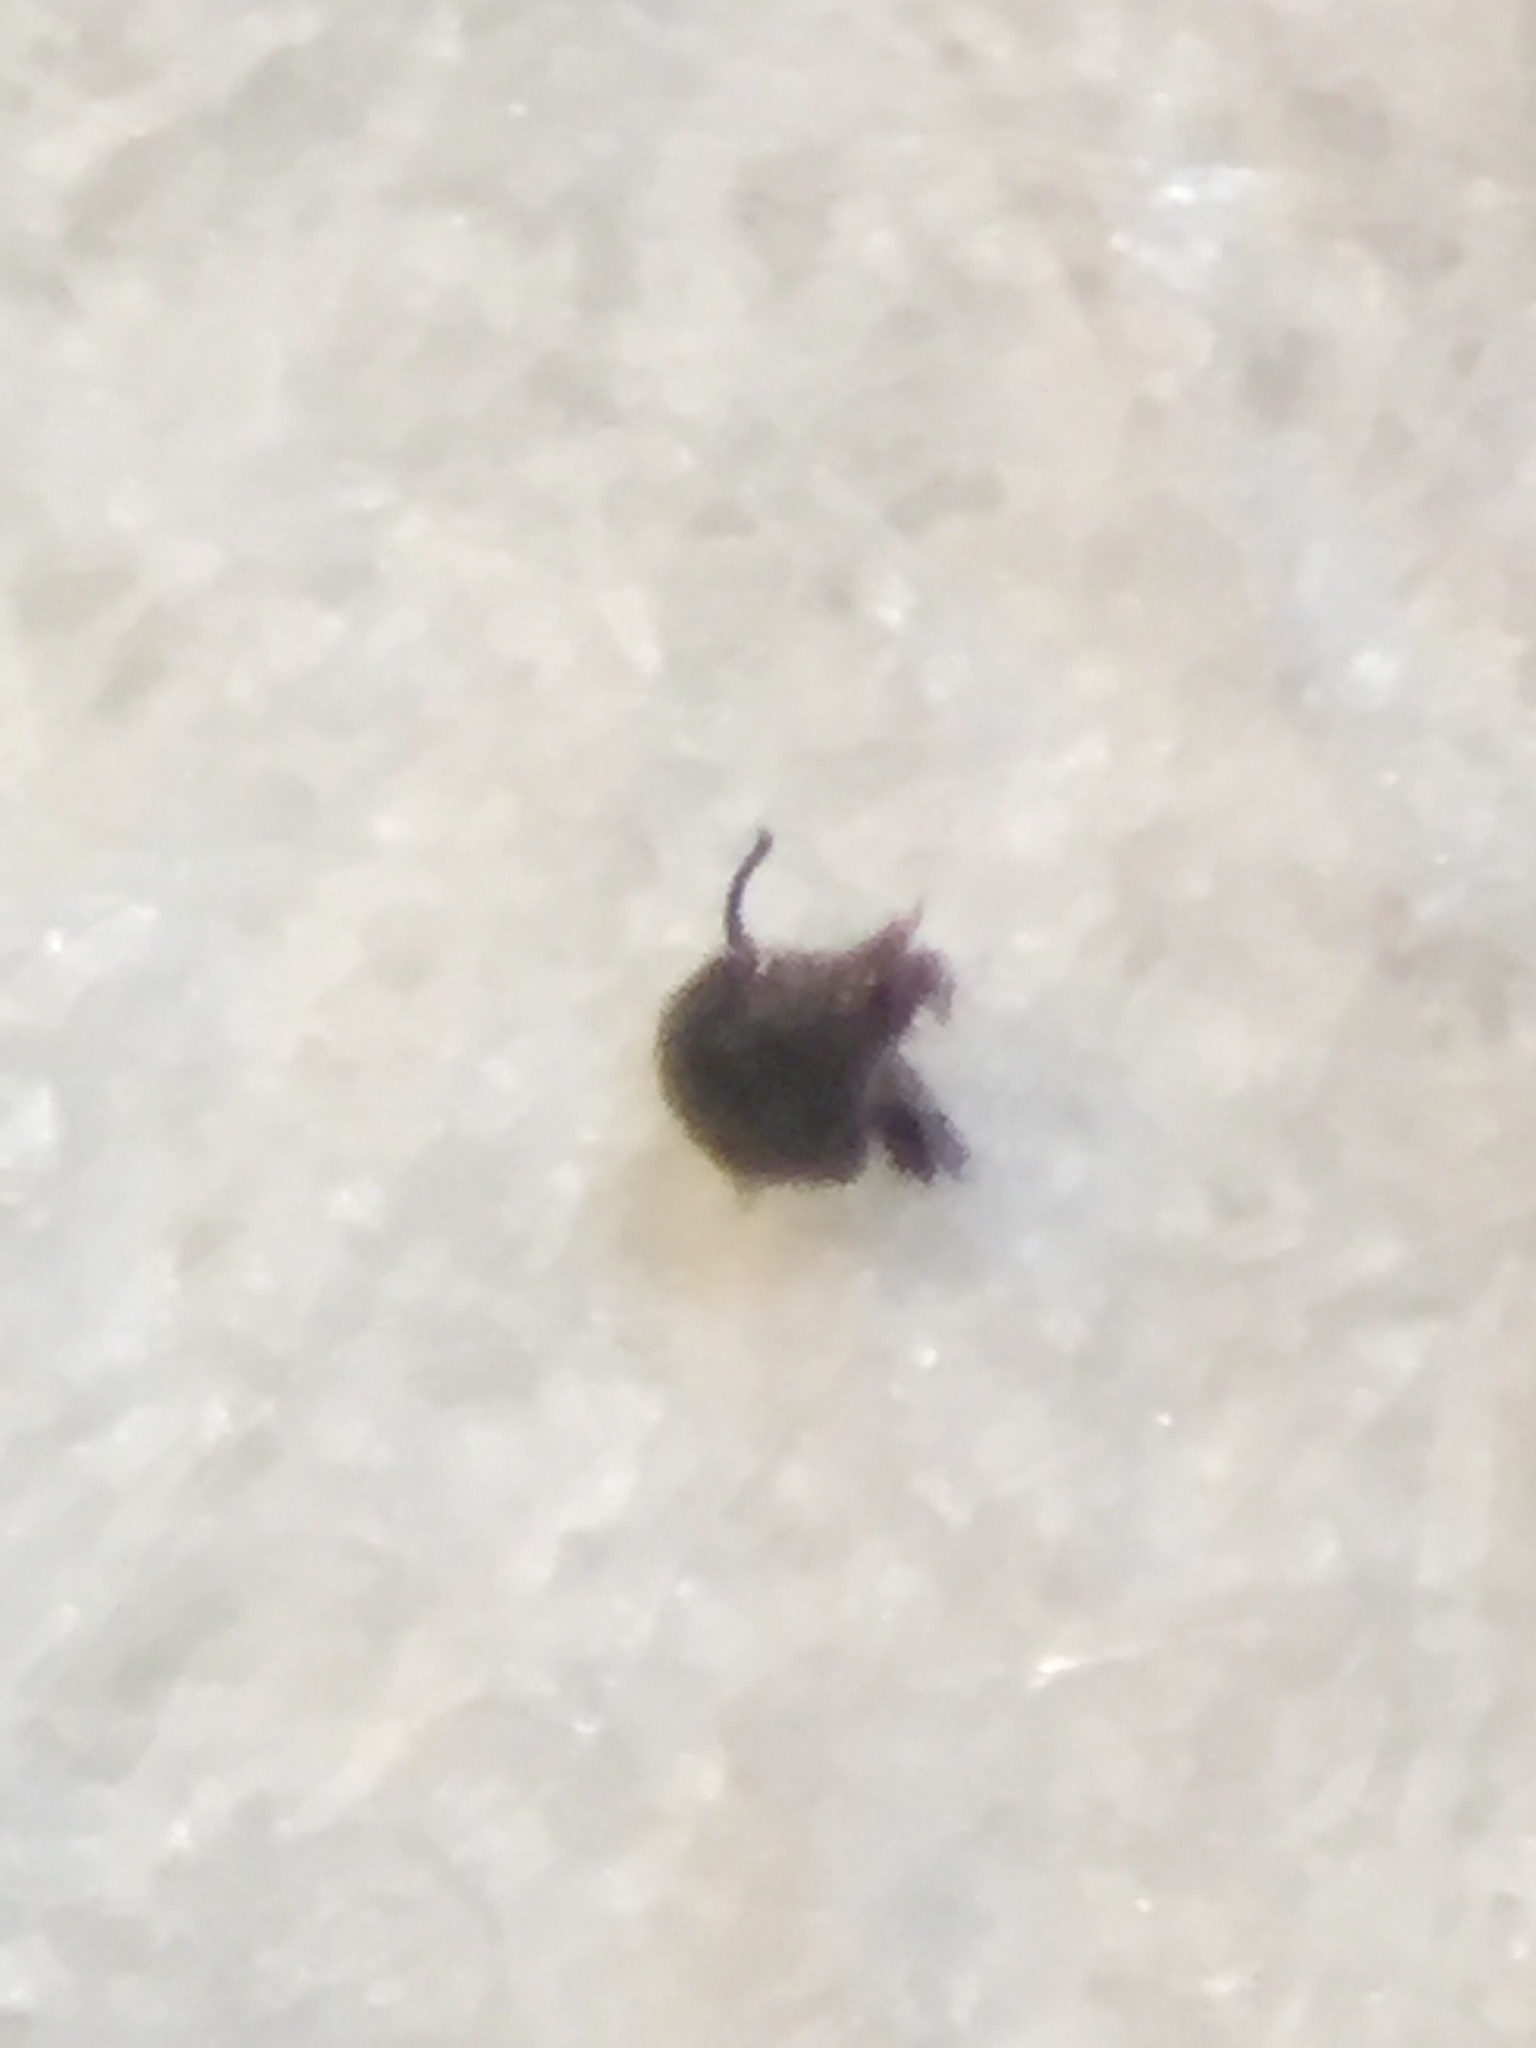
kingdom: Animalia
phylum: Arthropoda
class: Insecta
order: Diptera
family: Dolichopodidae
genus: Chimerothalassius
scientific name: Chimerothalassius marshalli
